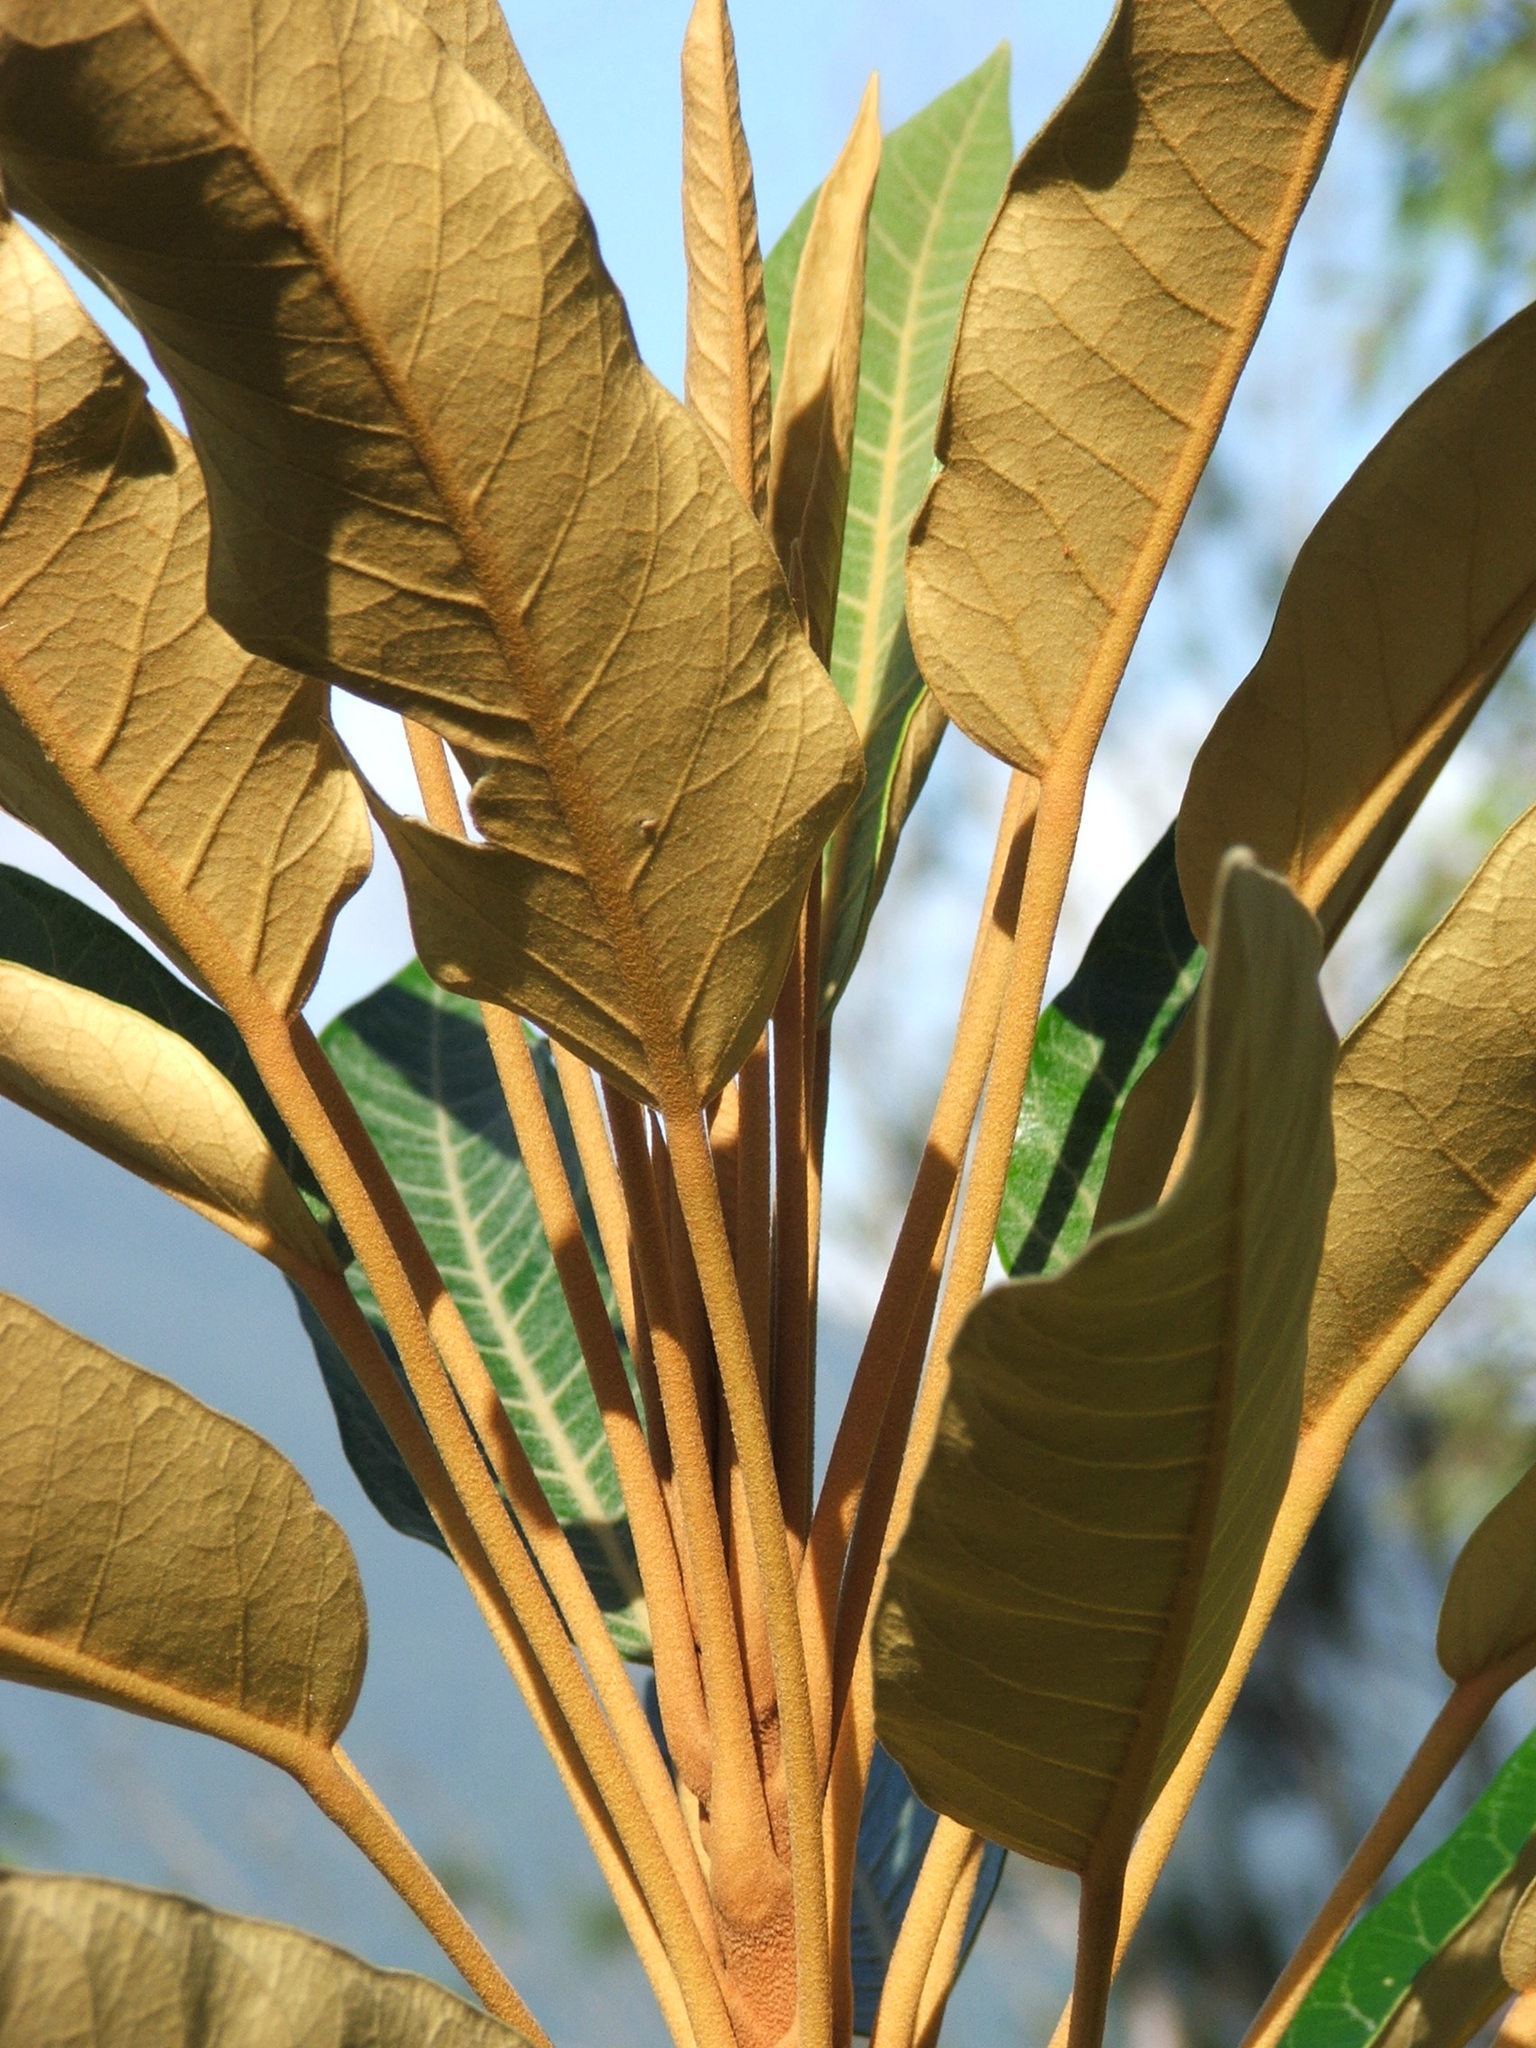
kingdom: Plantae
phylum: Tracheophyta
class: Magnoliopsida
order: Apiales
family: Araliaceae
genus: Astrotricha
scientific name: Astrotricha pterocarpa
